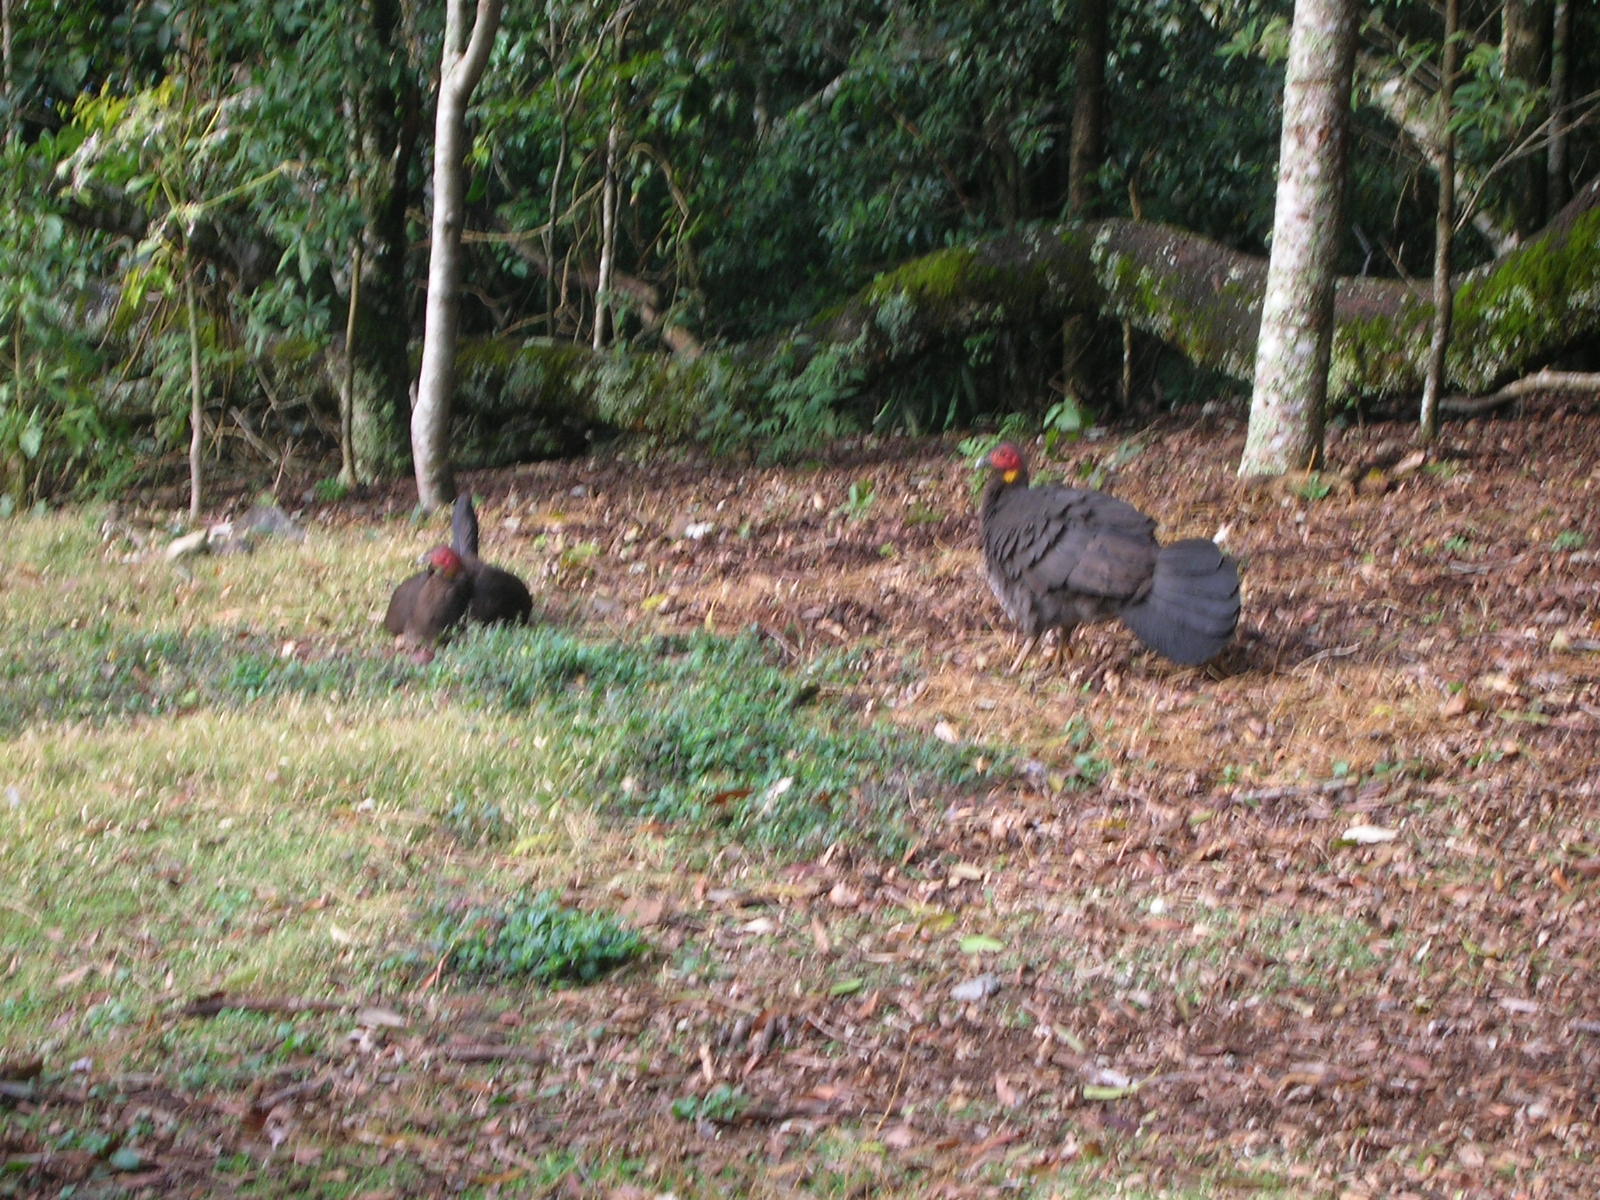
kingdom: Animalia
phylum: Chordata
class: Aves
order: Galliformes
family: Megapodiidae
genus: Alectura
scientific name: Alectura lathami
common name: Australian brushturkey
